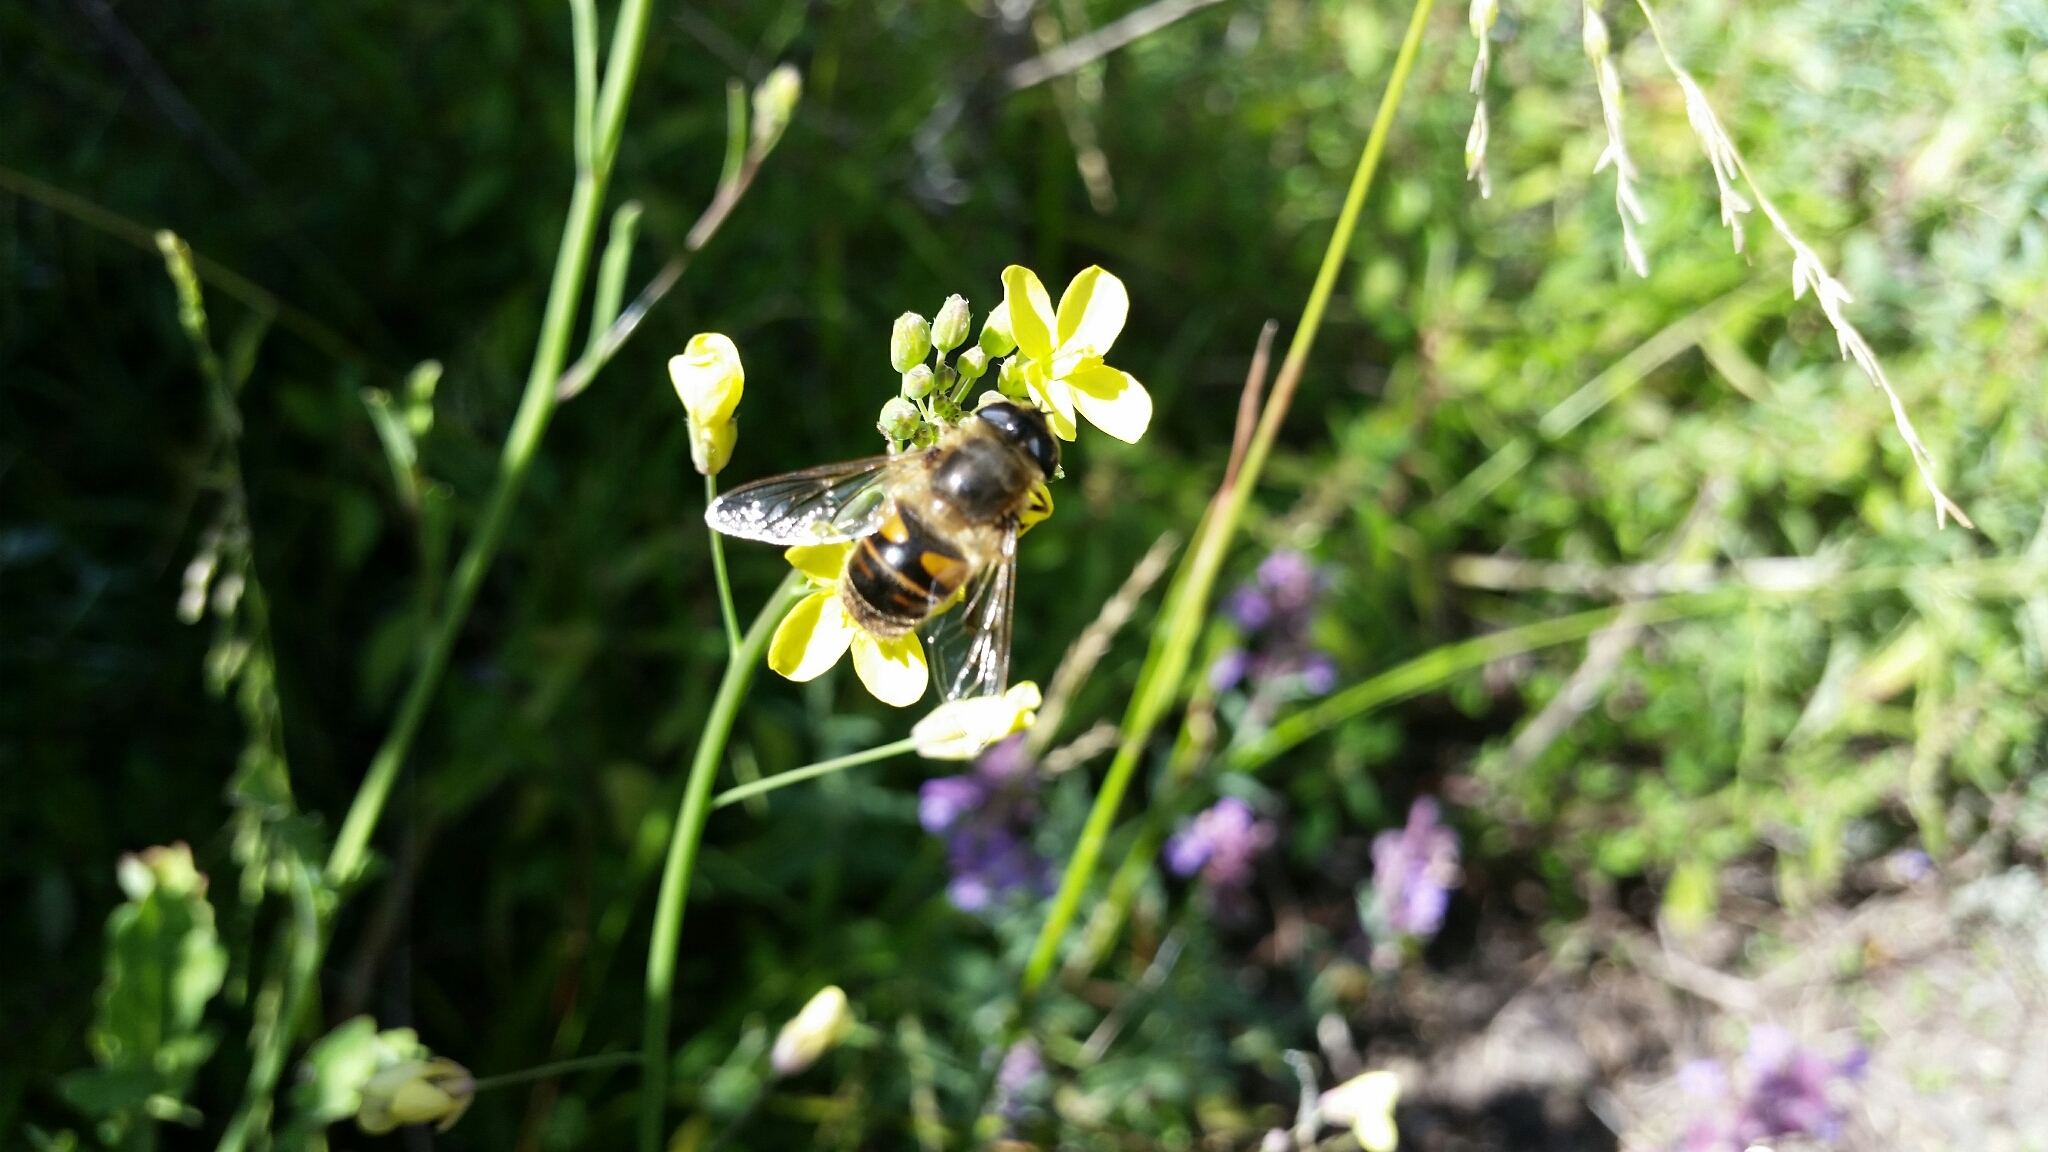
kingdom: Animalia
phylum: Arthropoda
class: Insecta
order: Diptera
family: Syrphidae
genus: Eristalis
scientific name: Eristalis tenax
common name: Drone fly
